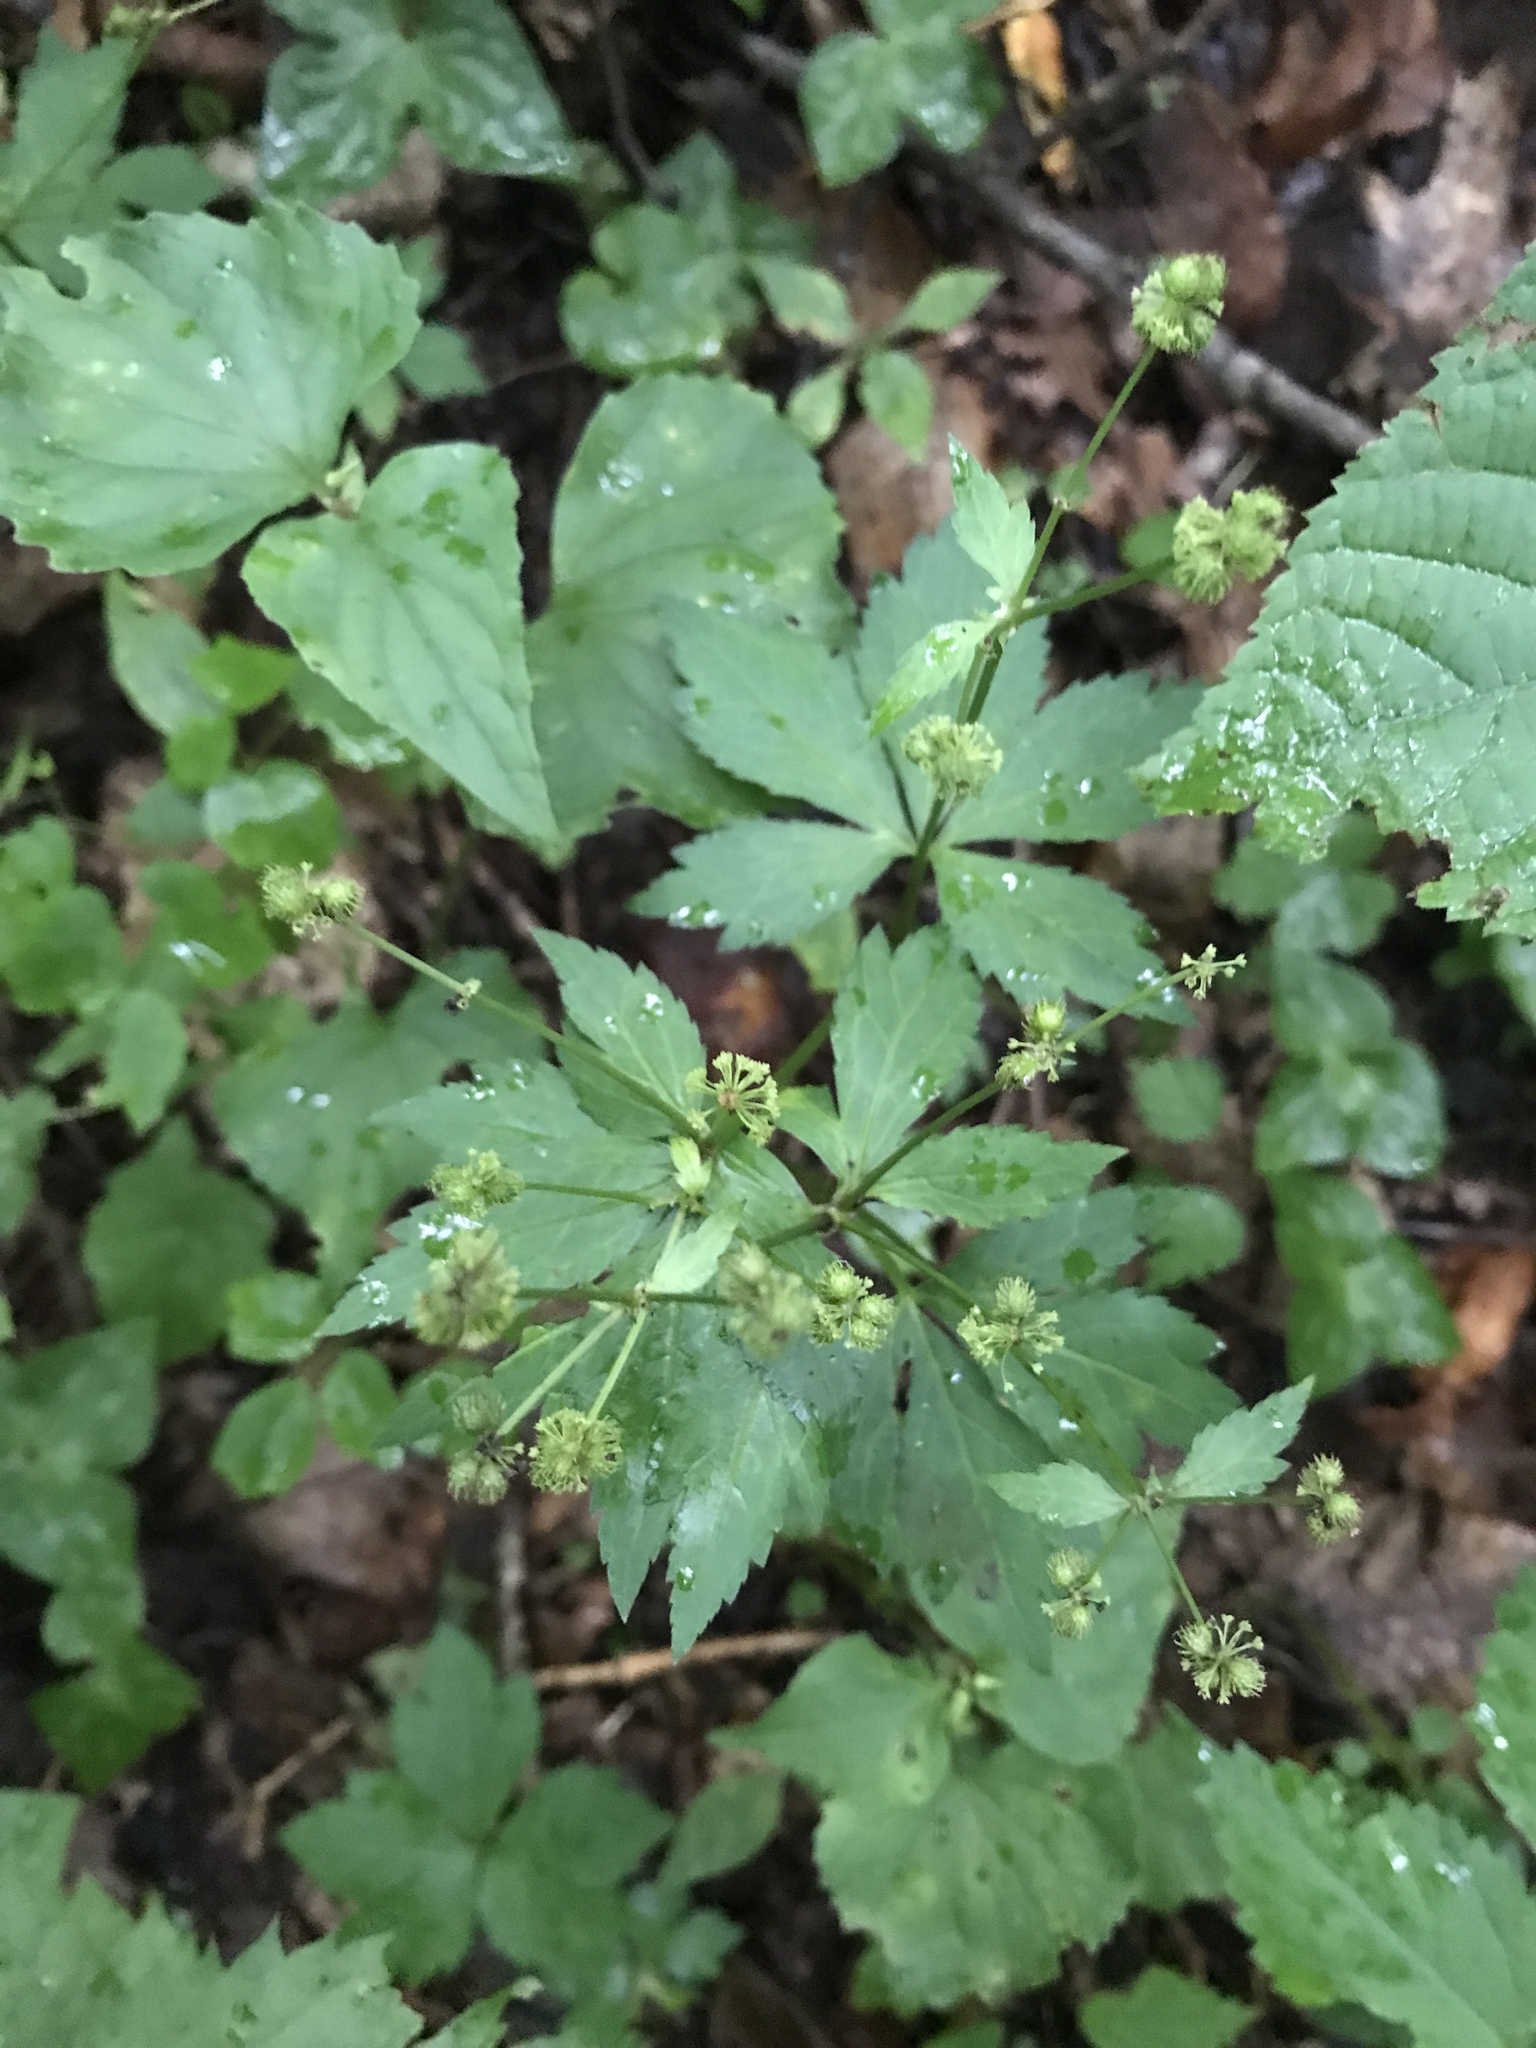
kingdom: Plantae
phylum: Tracheophyta
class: Magnoliopsida
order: Apiales
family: Apiaceae
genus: Sanicula
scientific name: Sanicula odorata
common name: Cluster sanicle
